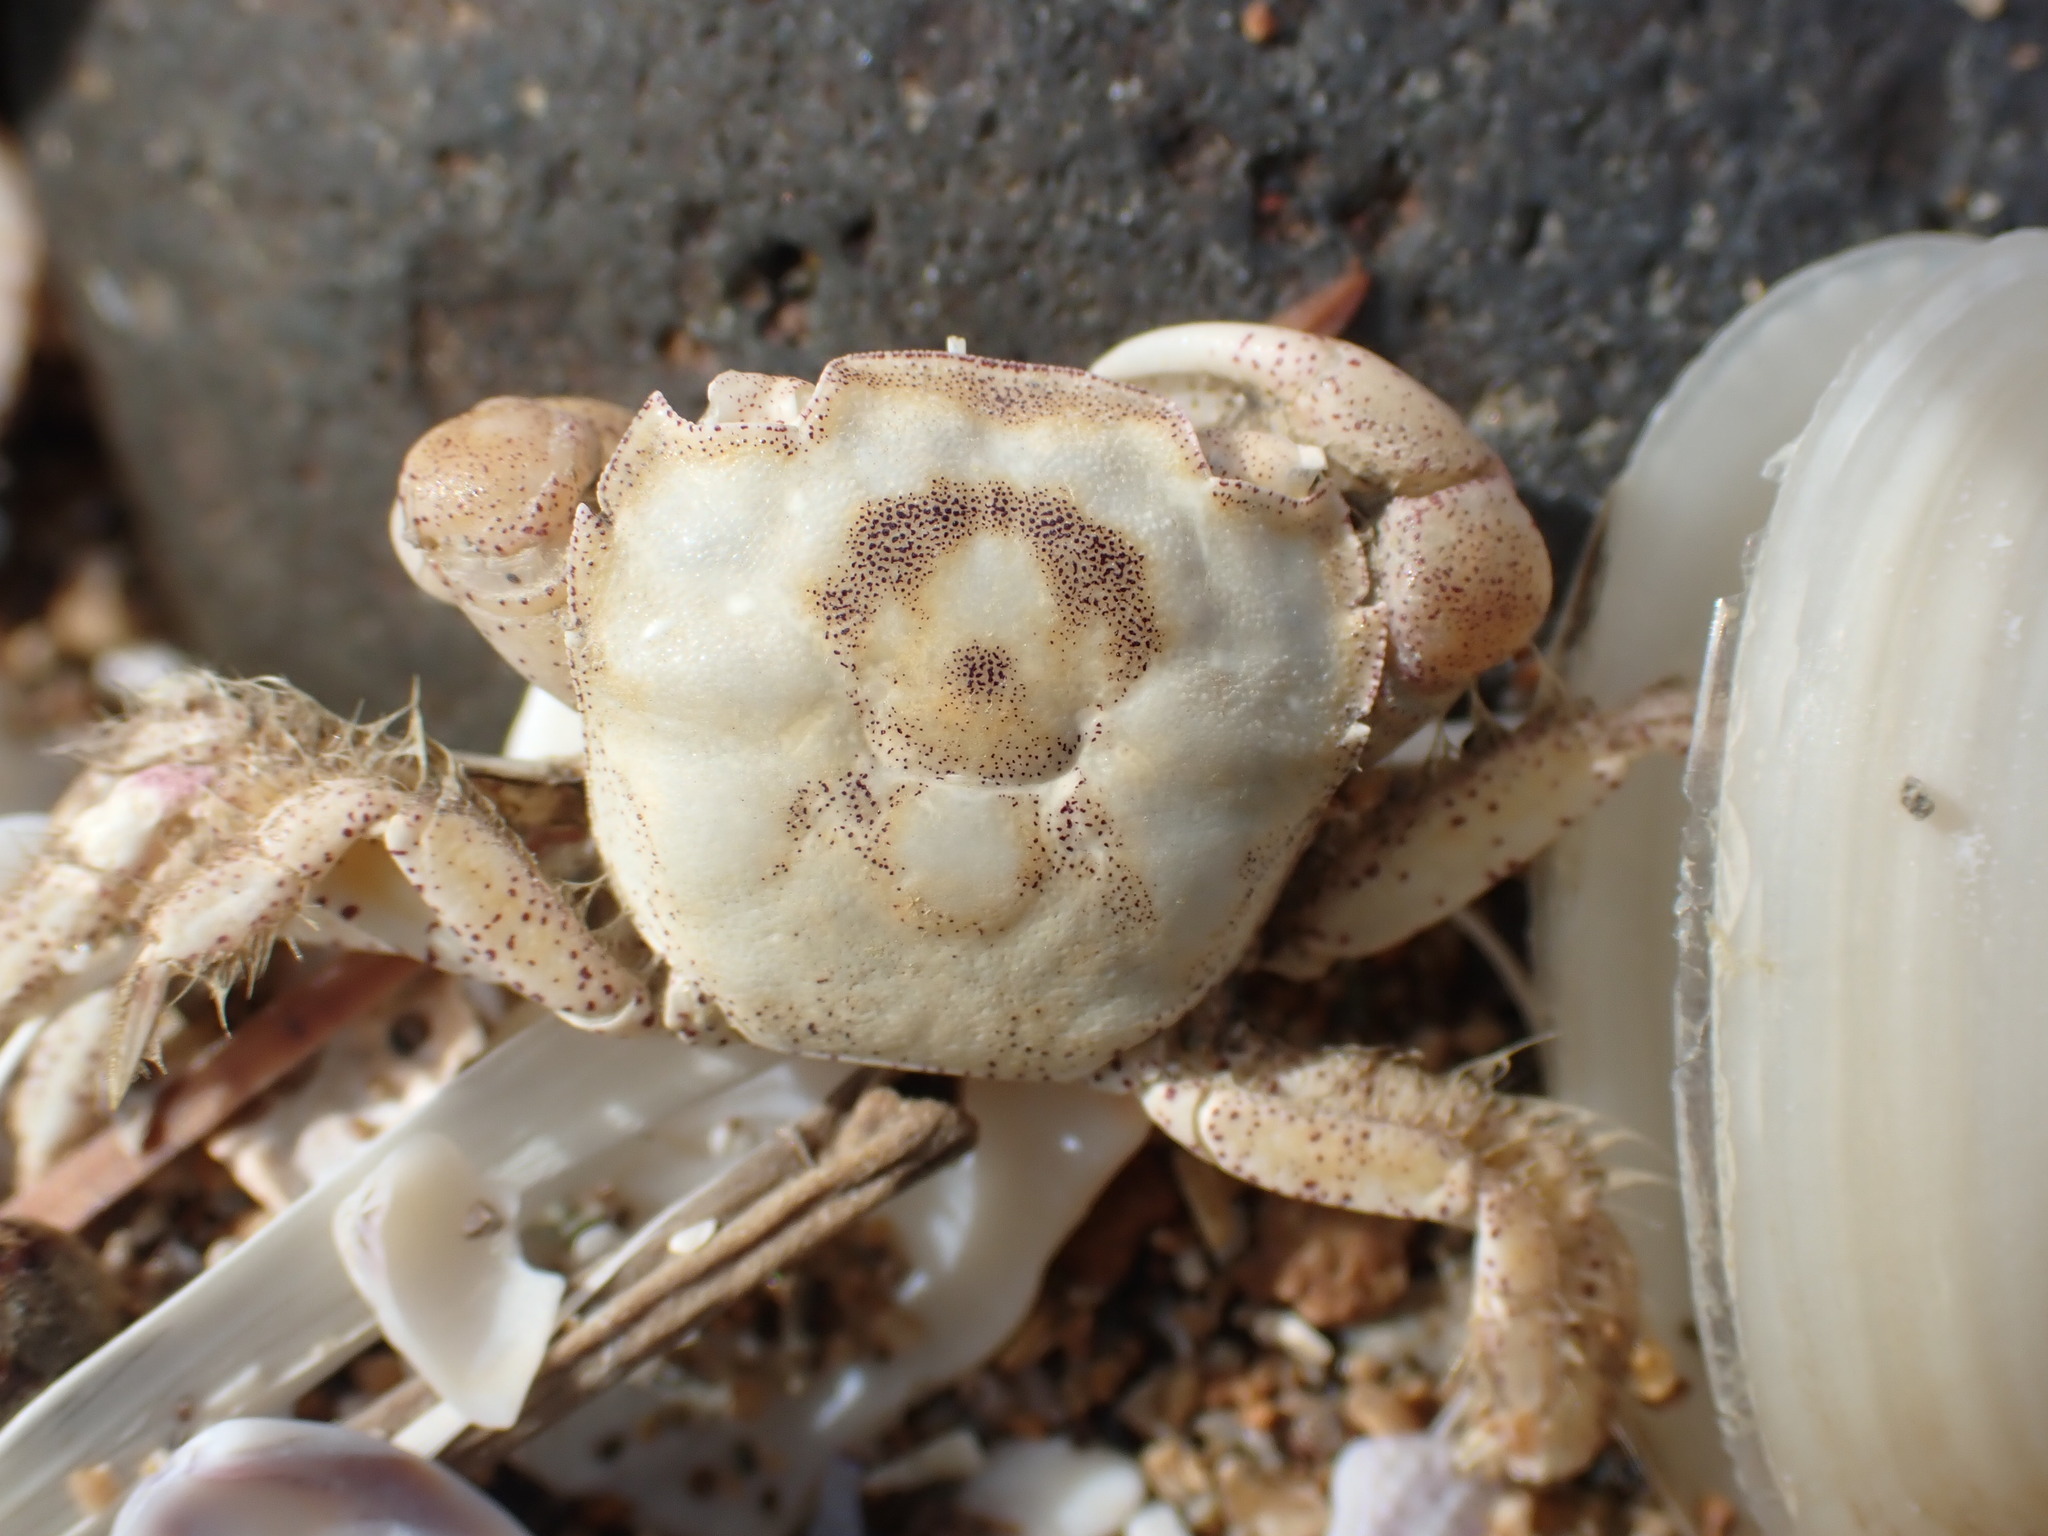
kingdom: Animalia
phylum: Arthropoda
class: Malacostraca
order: Decapoda
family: Varunidae
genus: Hemigrapsus
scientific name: Hemigrapsus crenulatus
